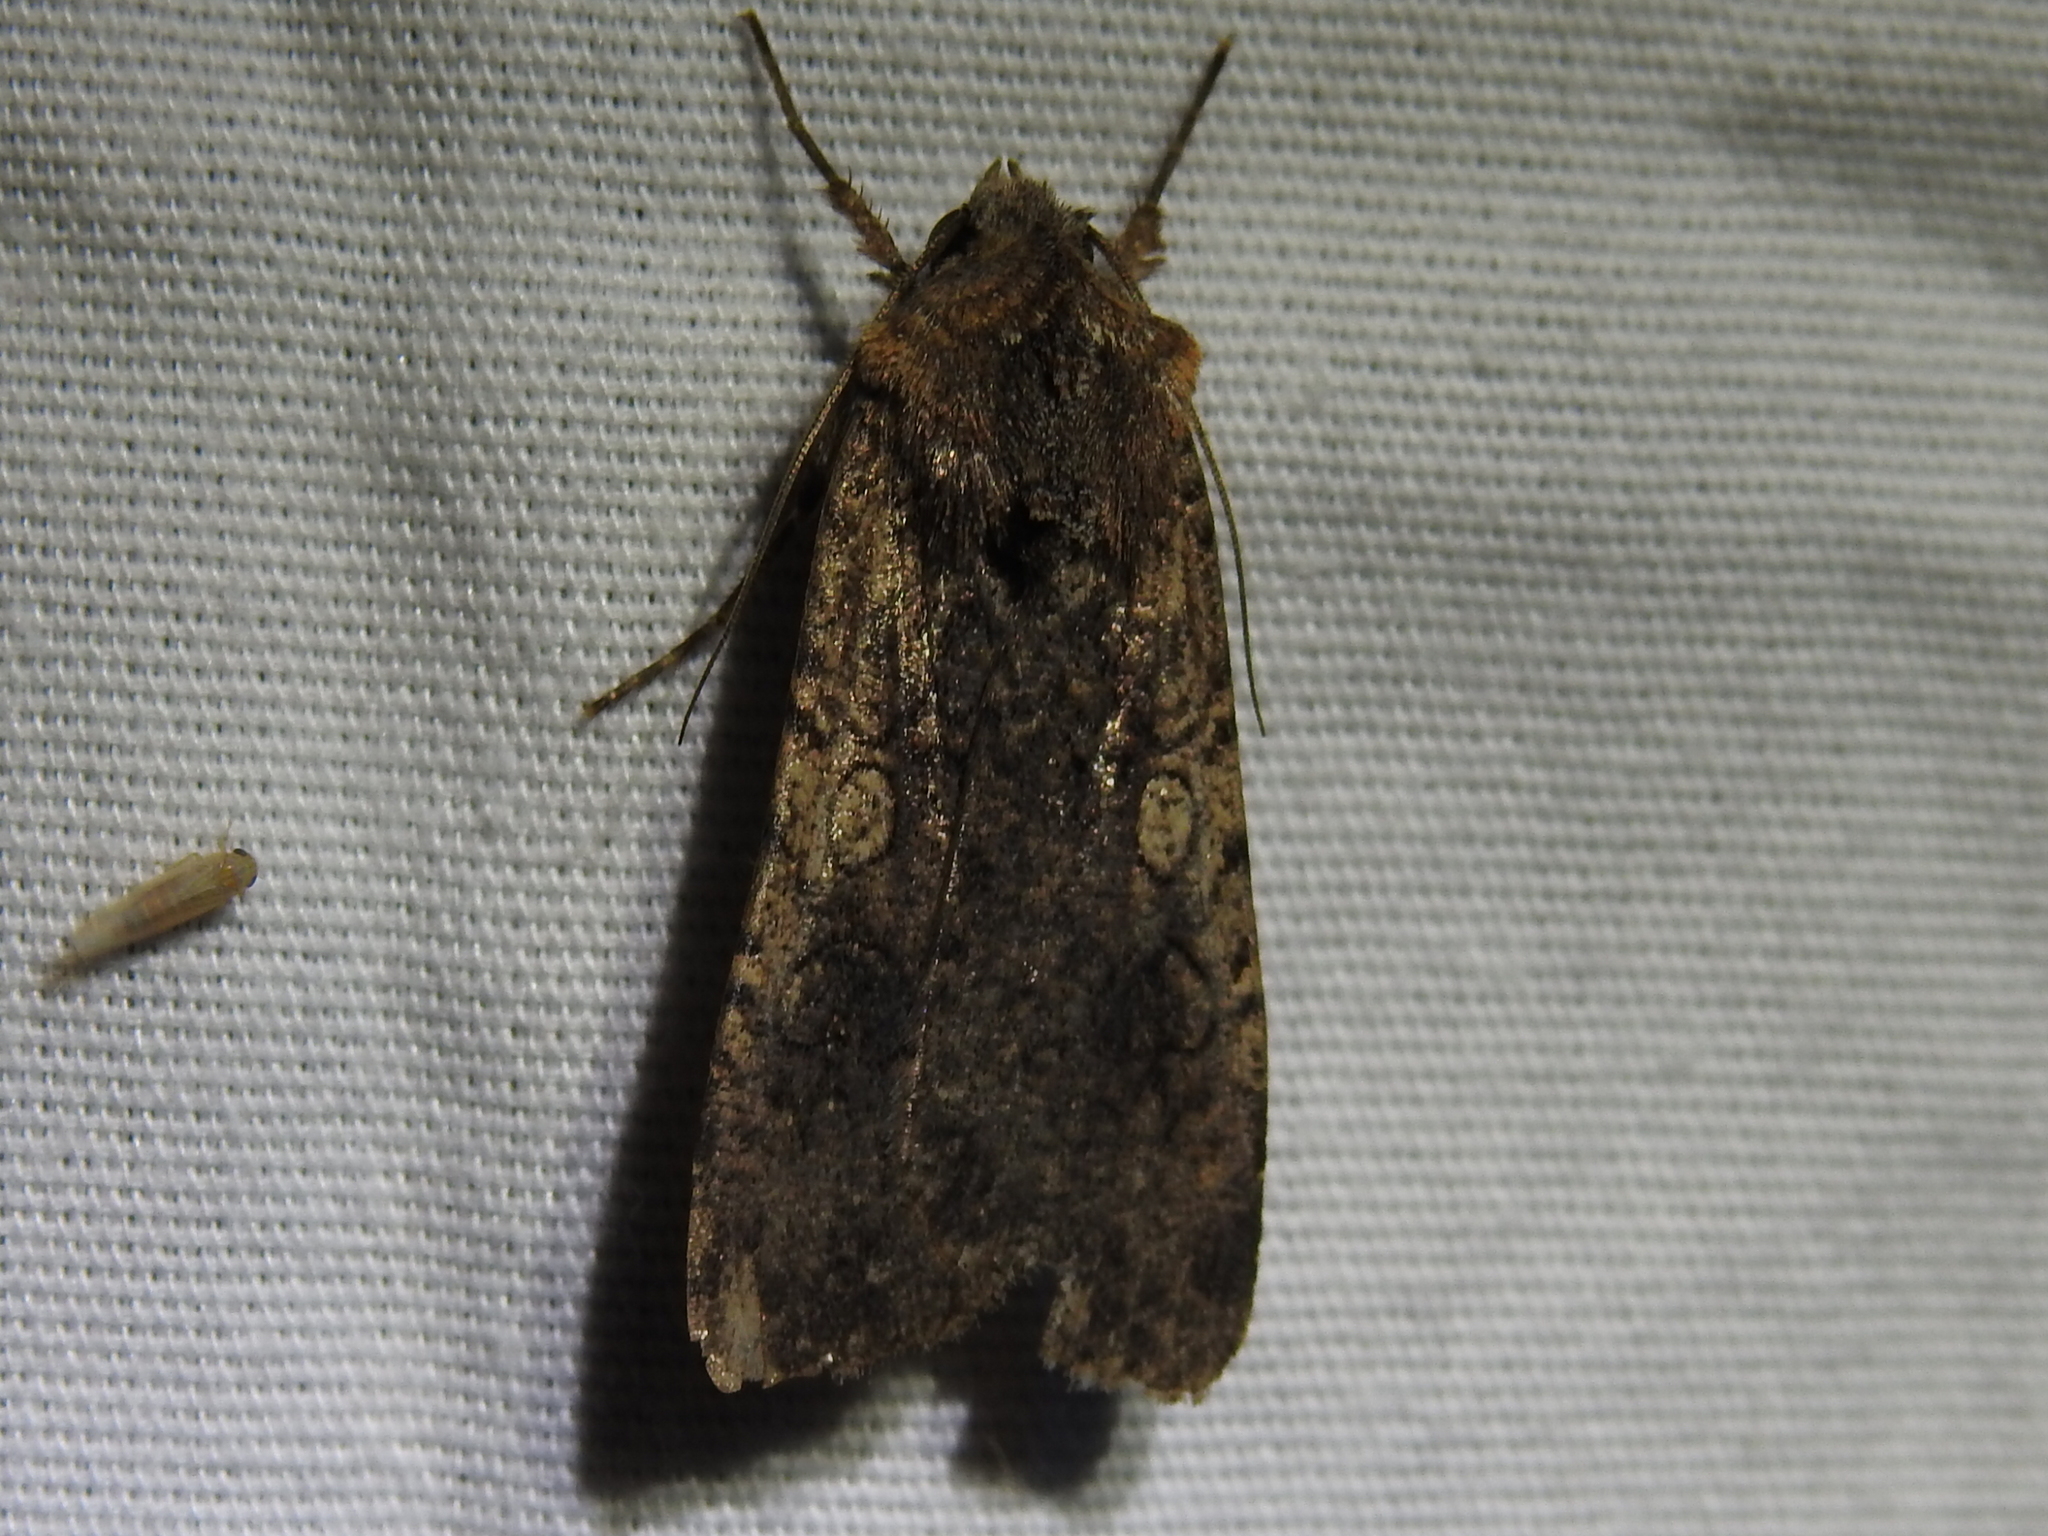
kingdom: Animalia
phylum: Arthropoda
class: Insecta
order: Lepidoptera
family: Noctuidae
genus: Peridroma
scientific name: Peridroma saucia
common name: Pearly underwing
